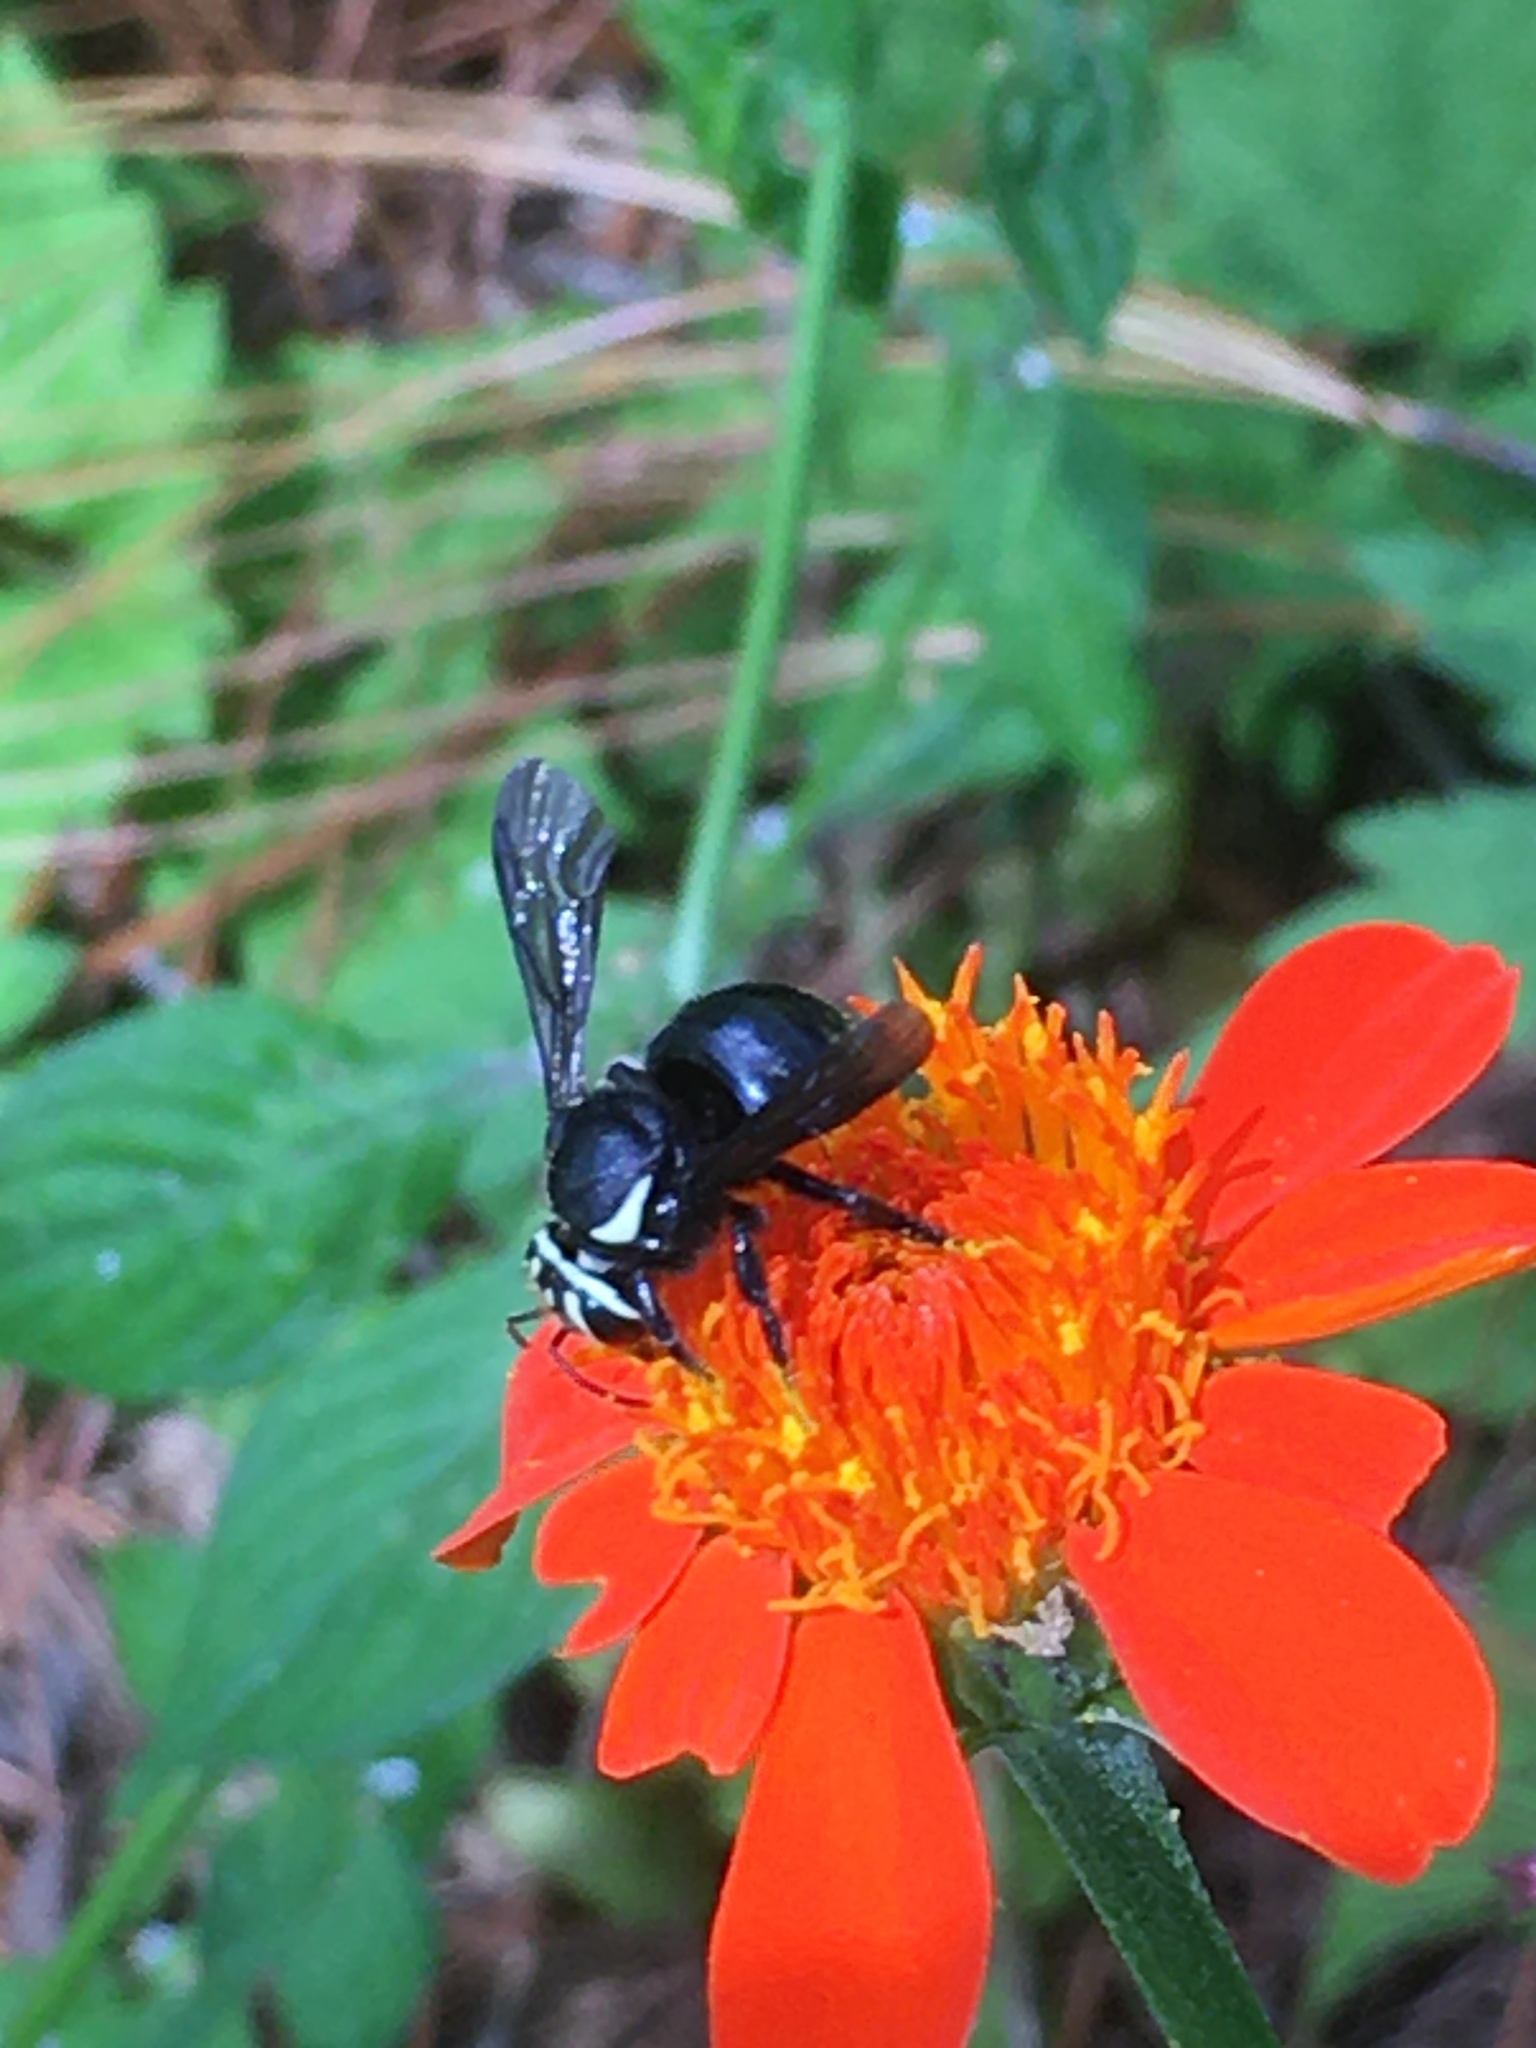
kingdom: Animalia
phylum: Arthropoda
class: Insecta
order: Hymenoptera
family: Megachilidae
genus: Paranthidium
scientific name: Paranthidium vespoides
